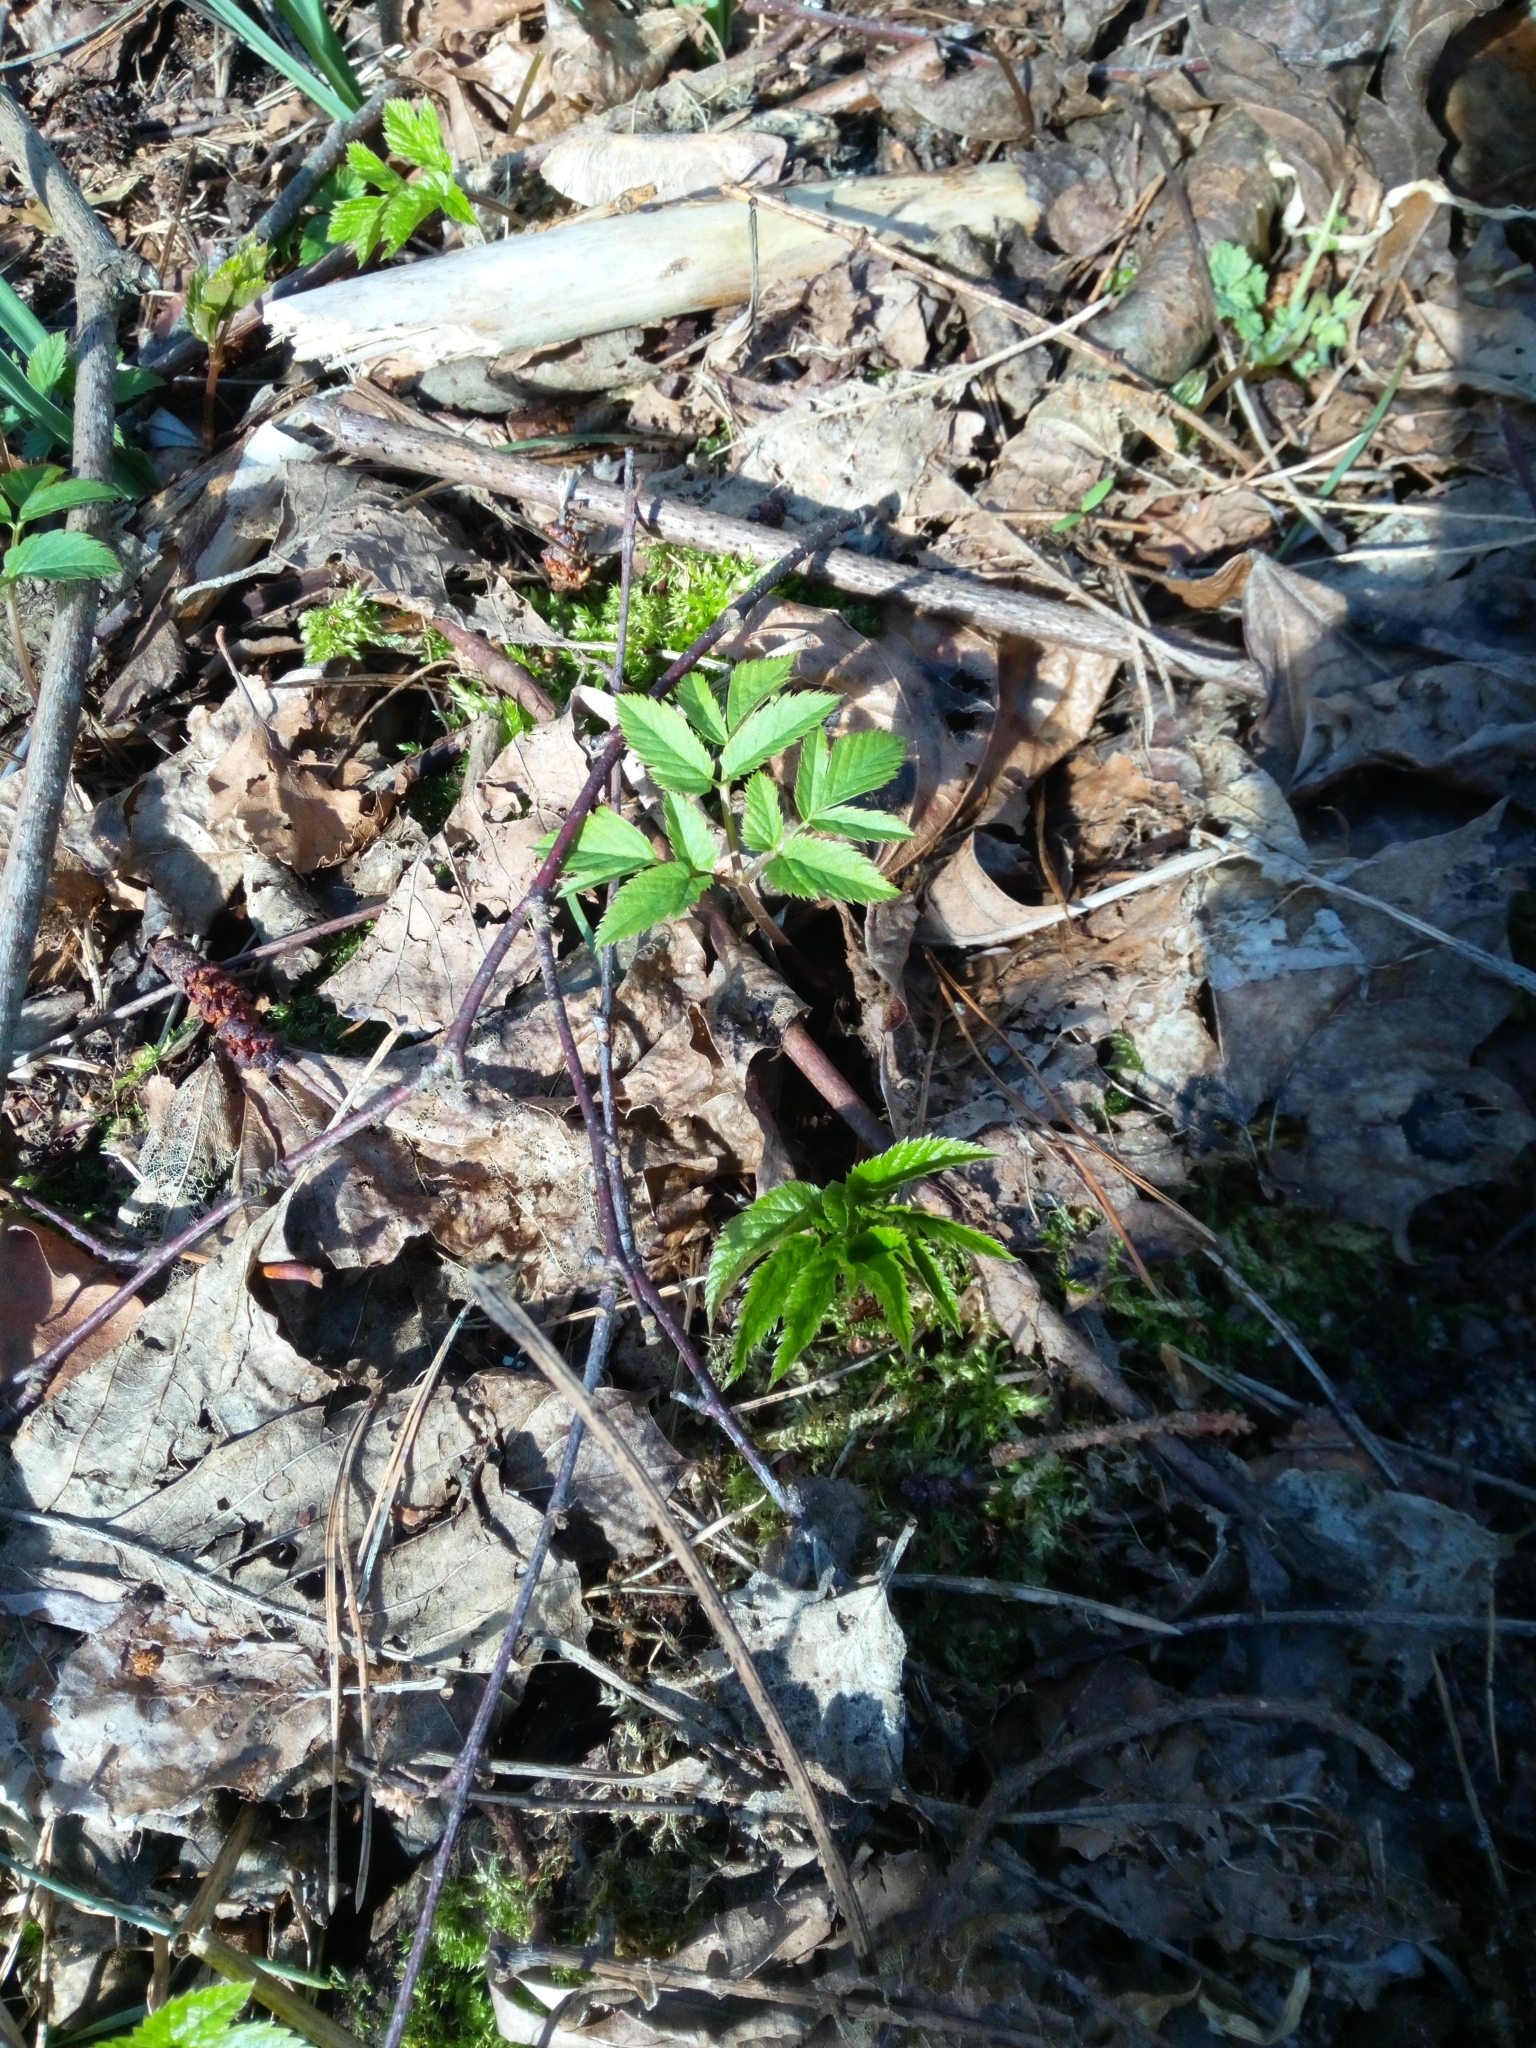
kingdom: Plantae
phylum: Tracheophyta
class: Magnoliopsida
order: Apiales
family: Apiaceae
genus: Aegopodium
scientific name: Aegopodium podagraria
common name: Ground-elder
